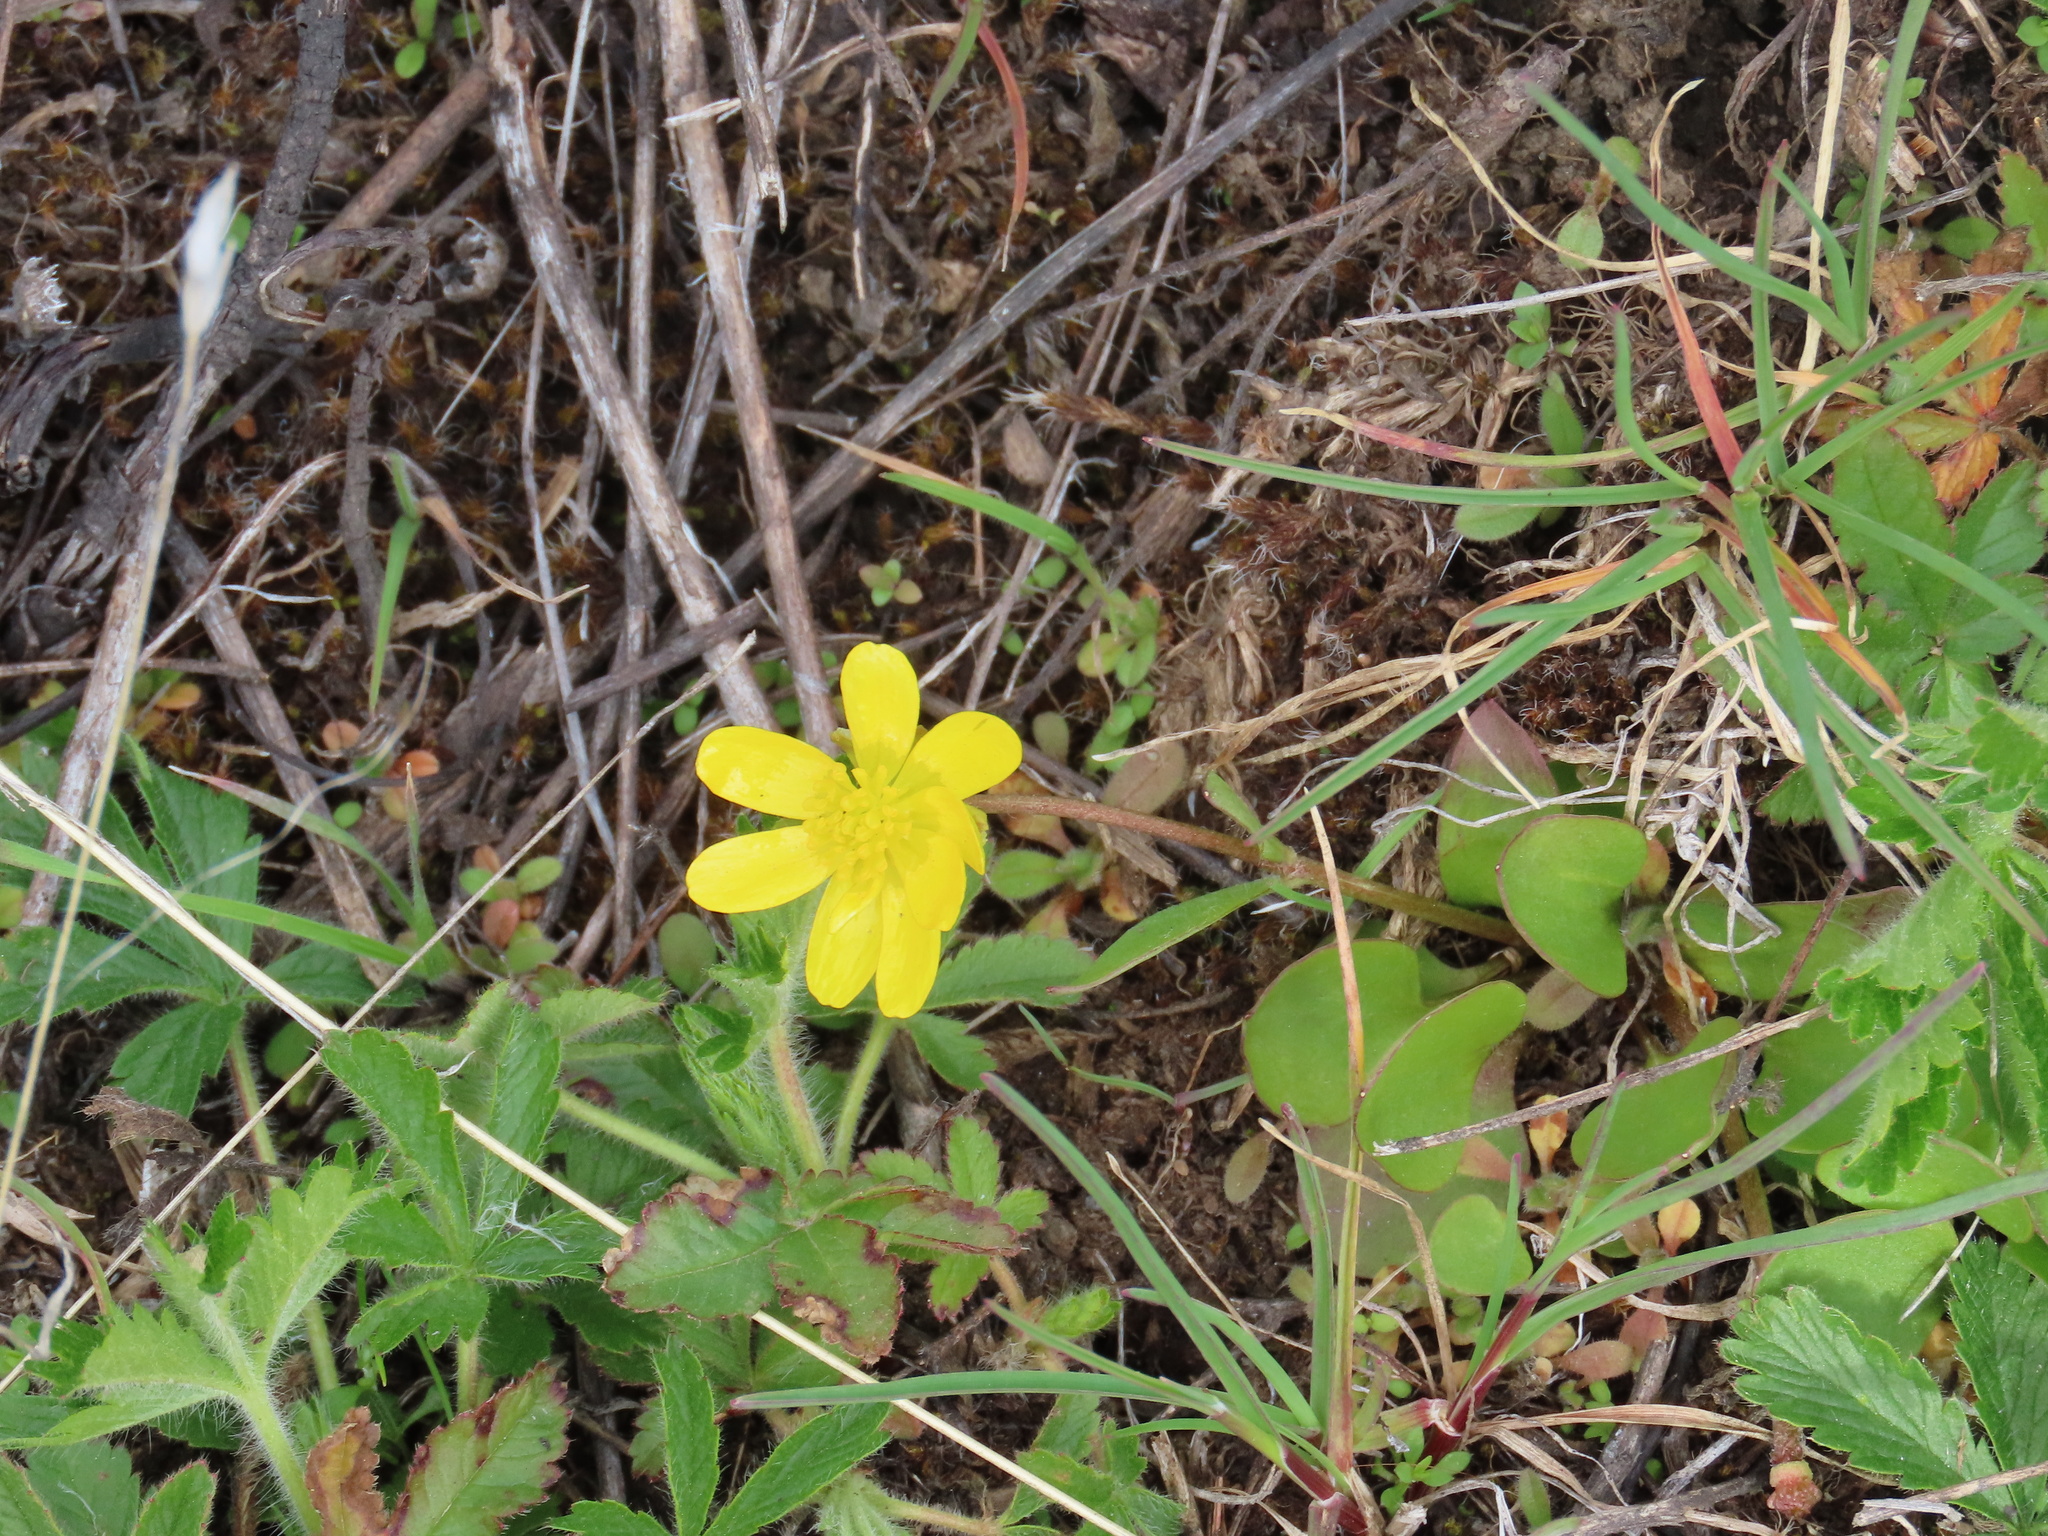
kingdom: Plantae
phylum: Tracheophyta
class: Magnoliopsida
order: Ranunculales
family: Ranunculaceae
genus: Ranunculus
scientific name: Ranunculus glaberrimus
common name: Sagebrush buttercup
